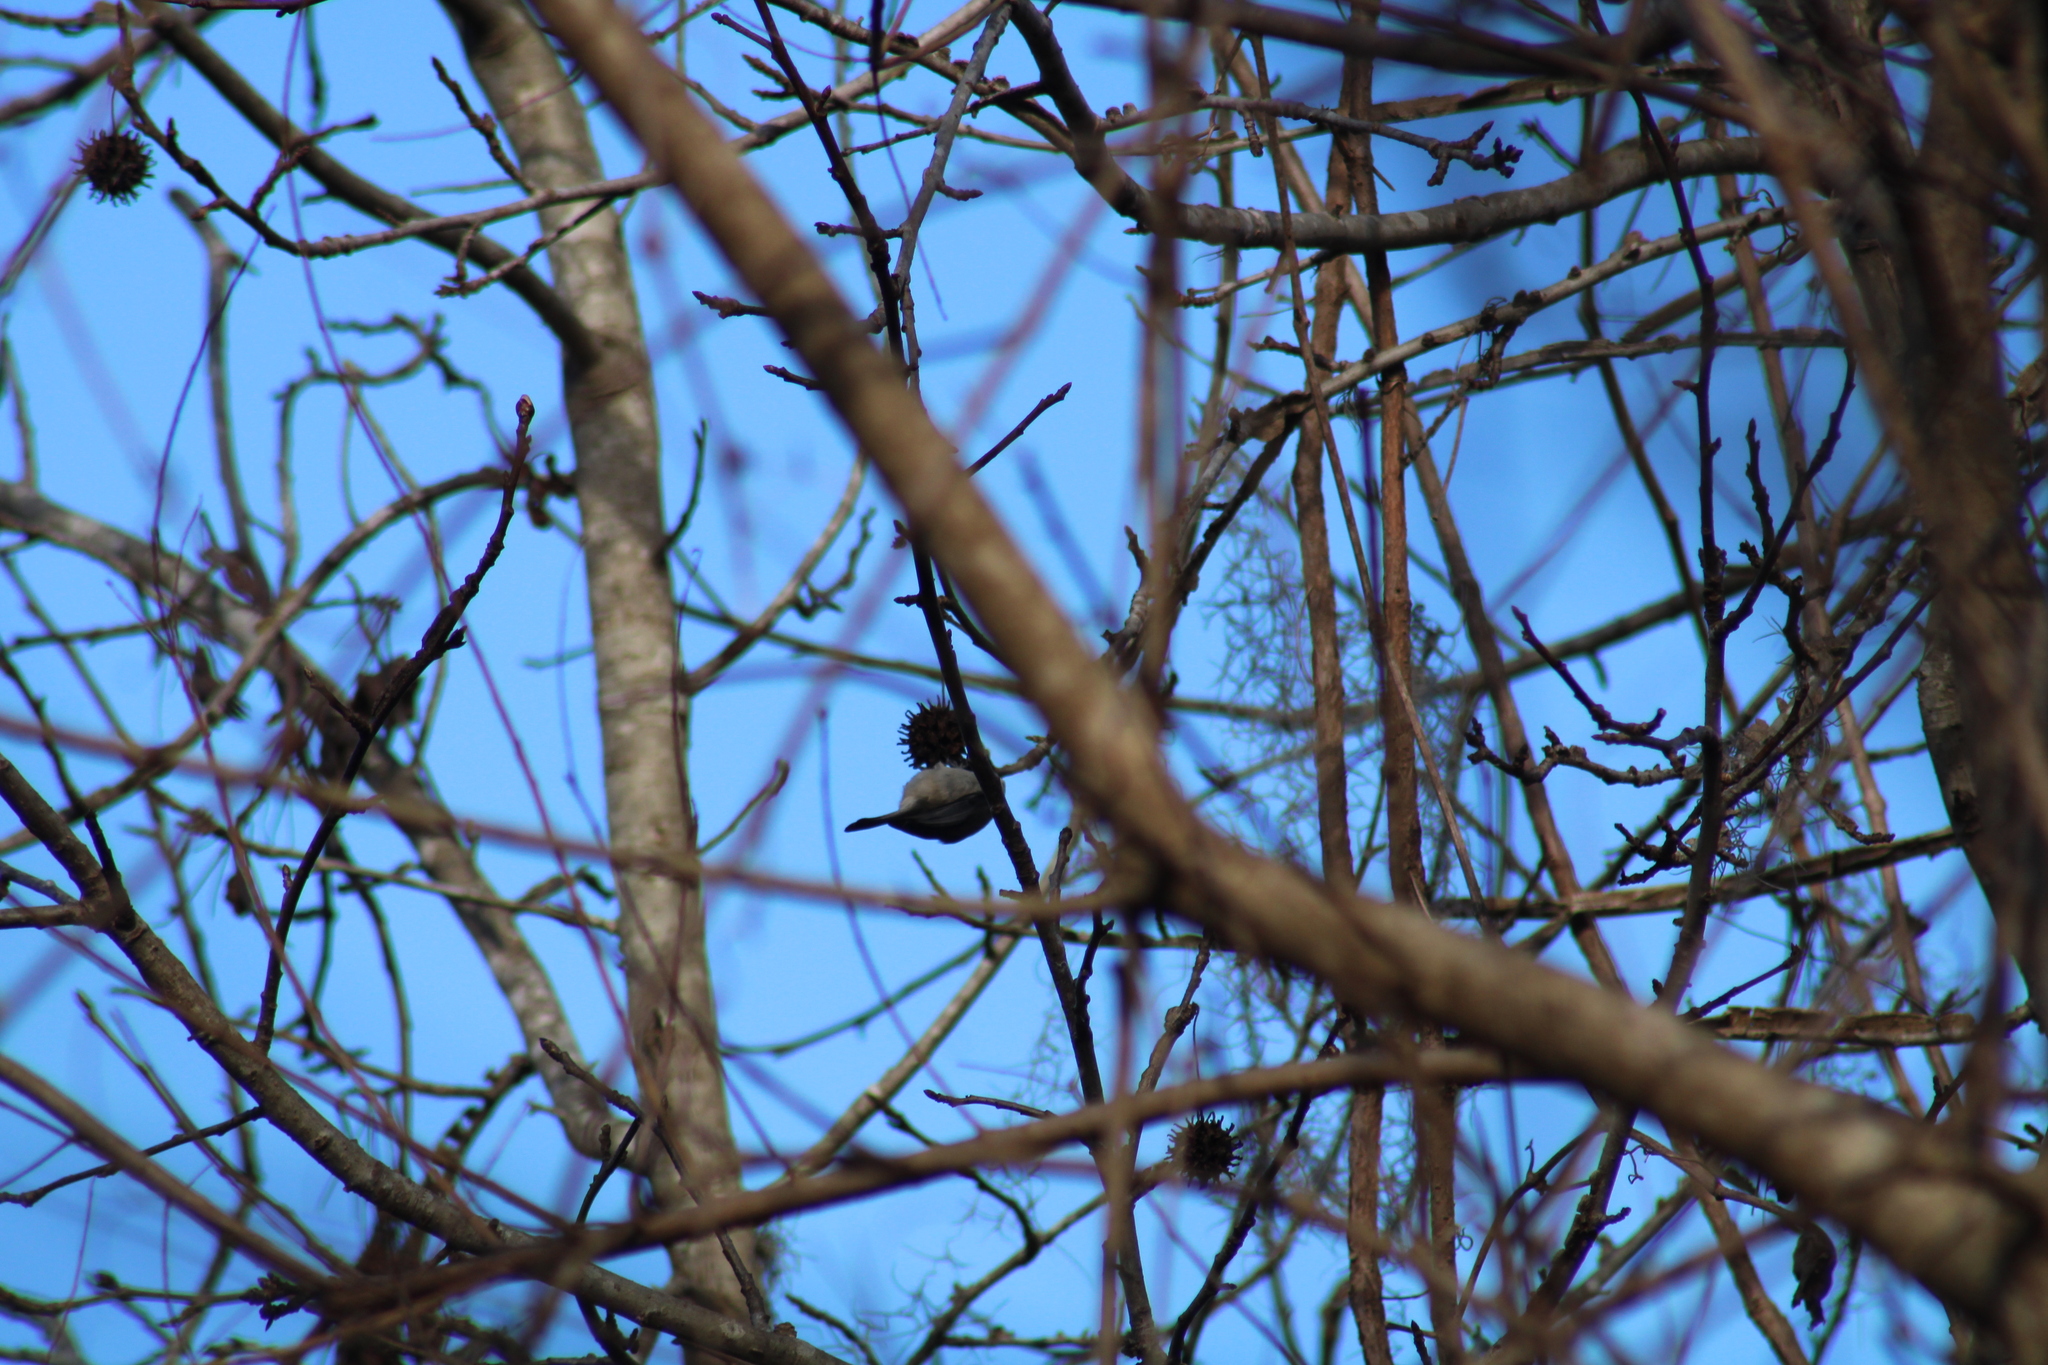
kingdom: Animalia
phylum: Chordata
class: Aves
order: Passeriformes
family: Paridae
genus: Poecile
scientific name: Poecile carolinensis
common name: Carolina chickadee
